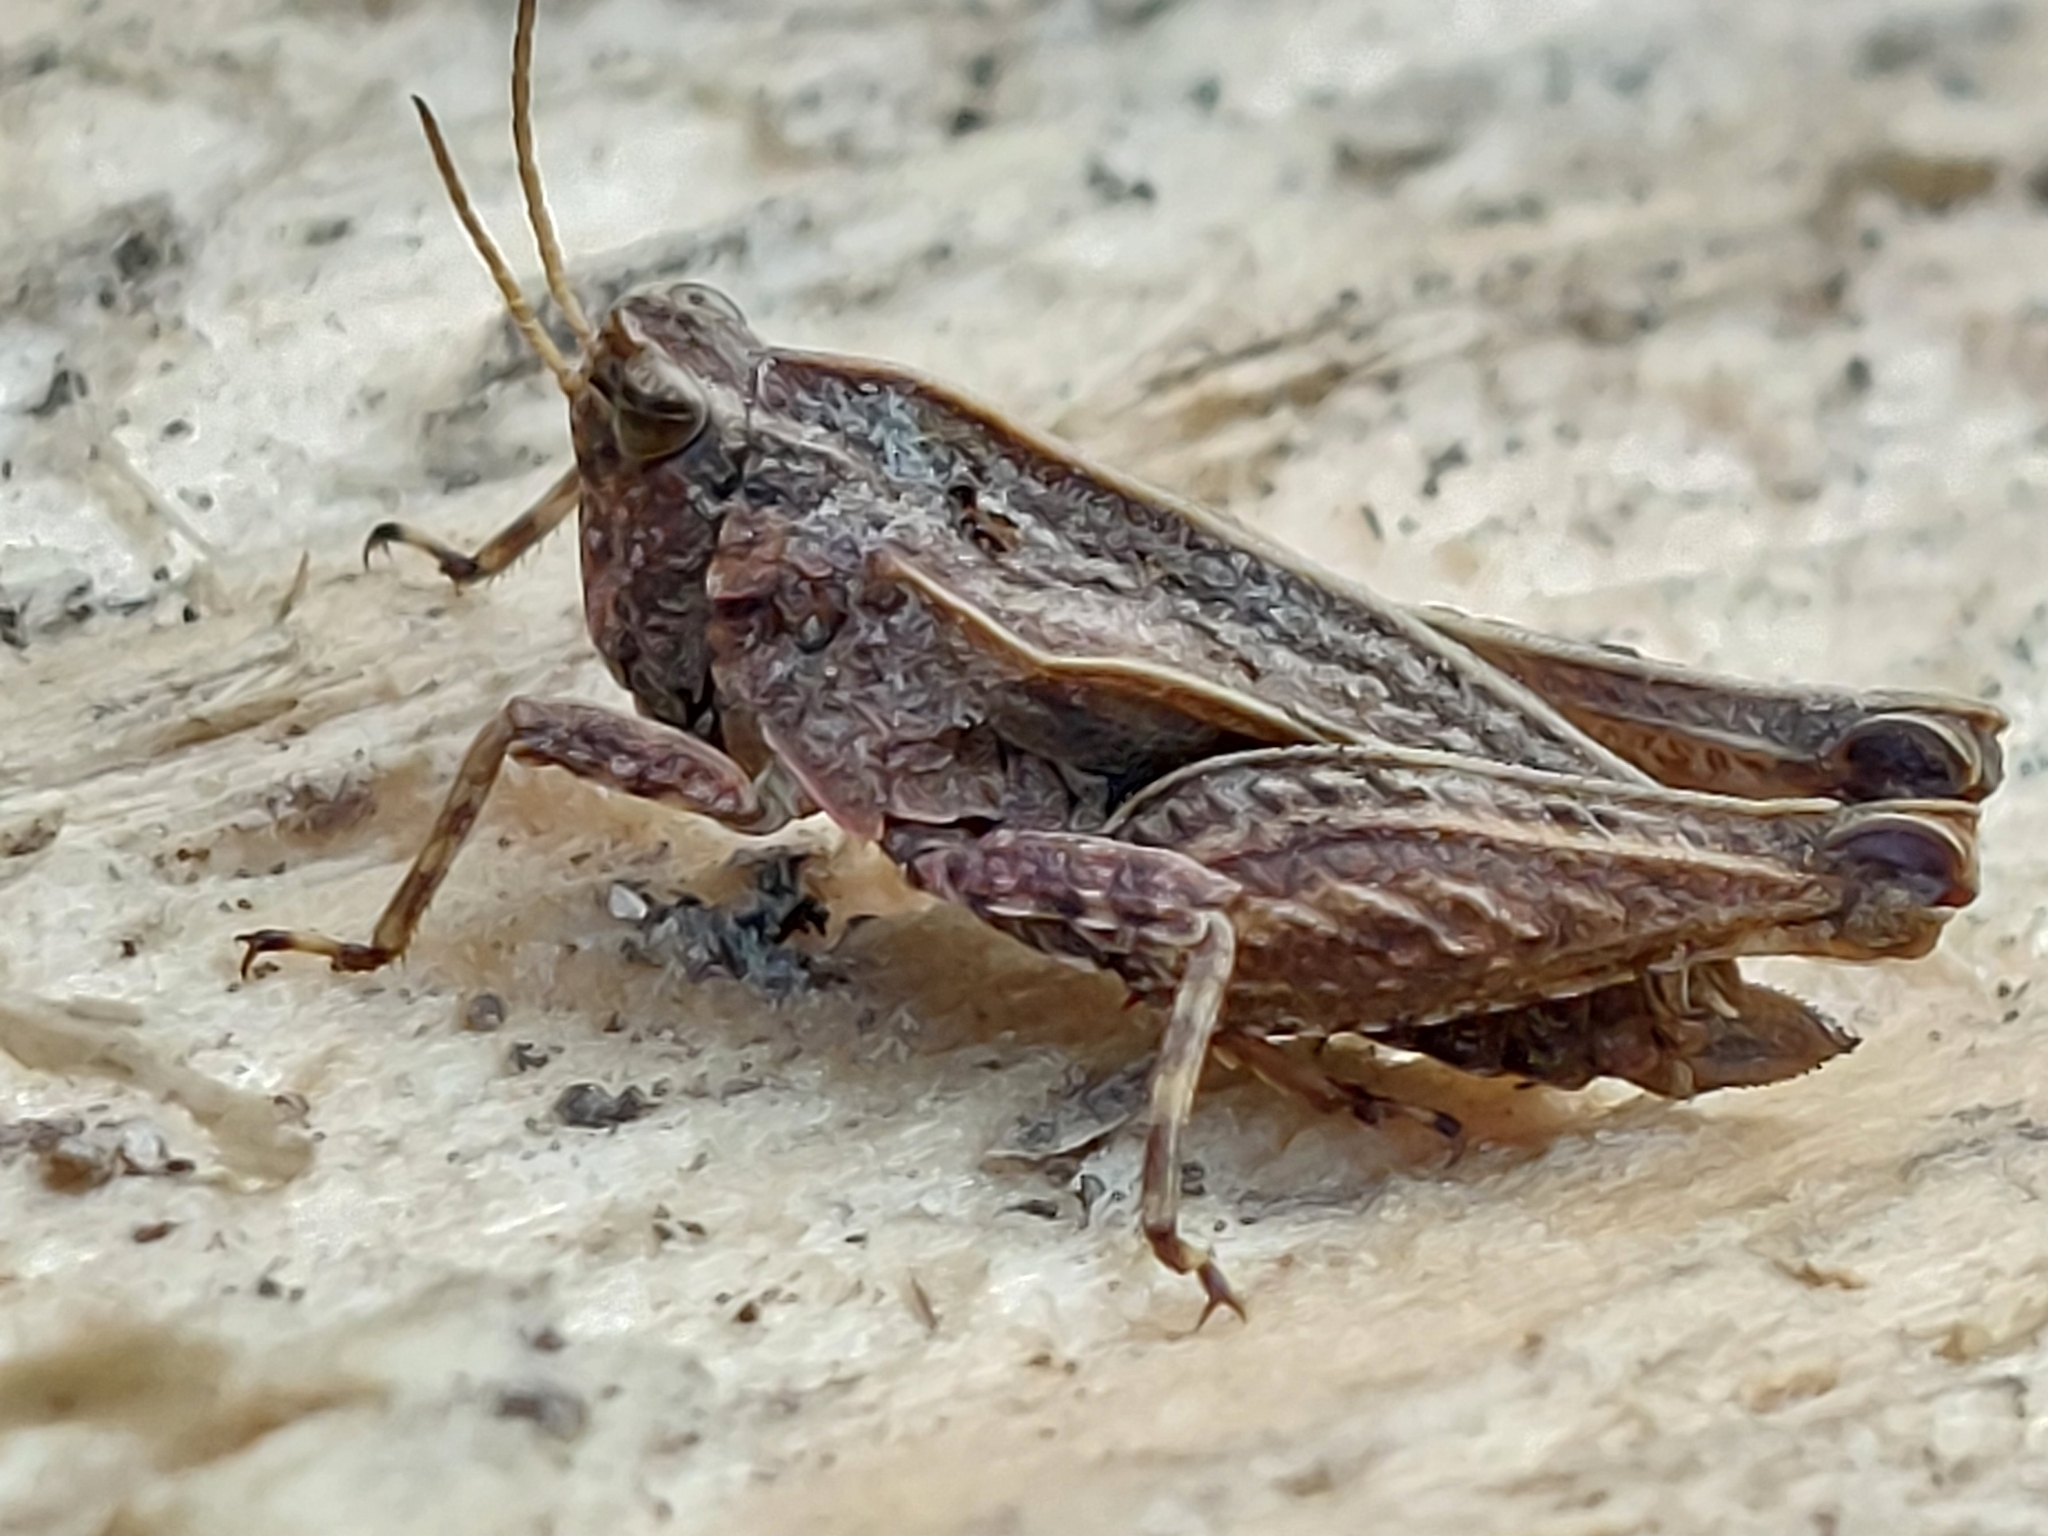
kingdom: Animalia
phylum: Arthropoda
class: Insecta
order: Orthoptera
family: Tetrigidae
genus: Tetrix
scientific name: Tetrix undulata
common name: Common groundhopper
